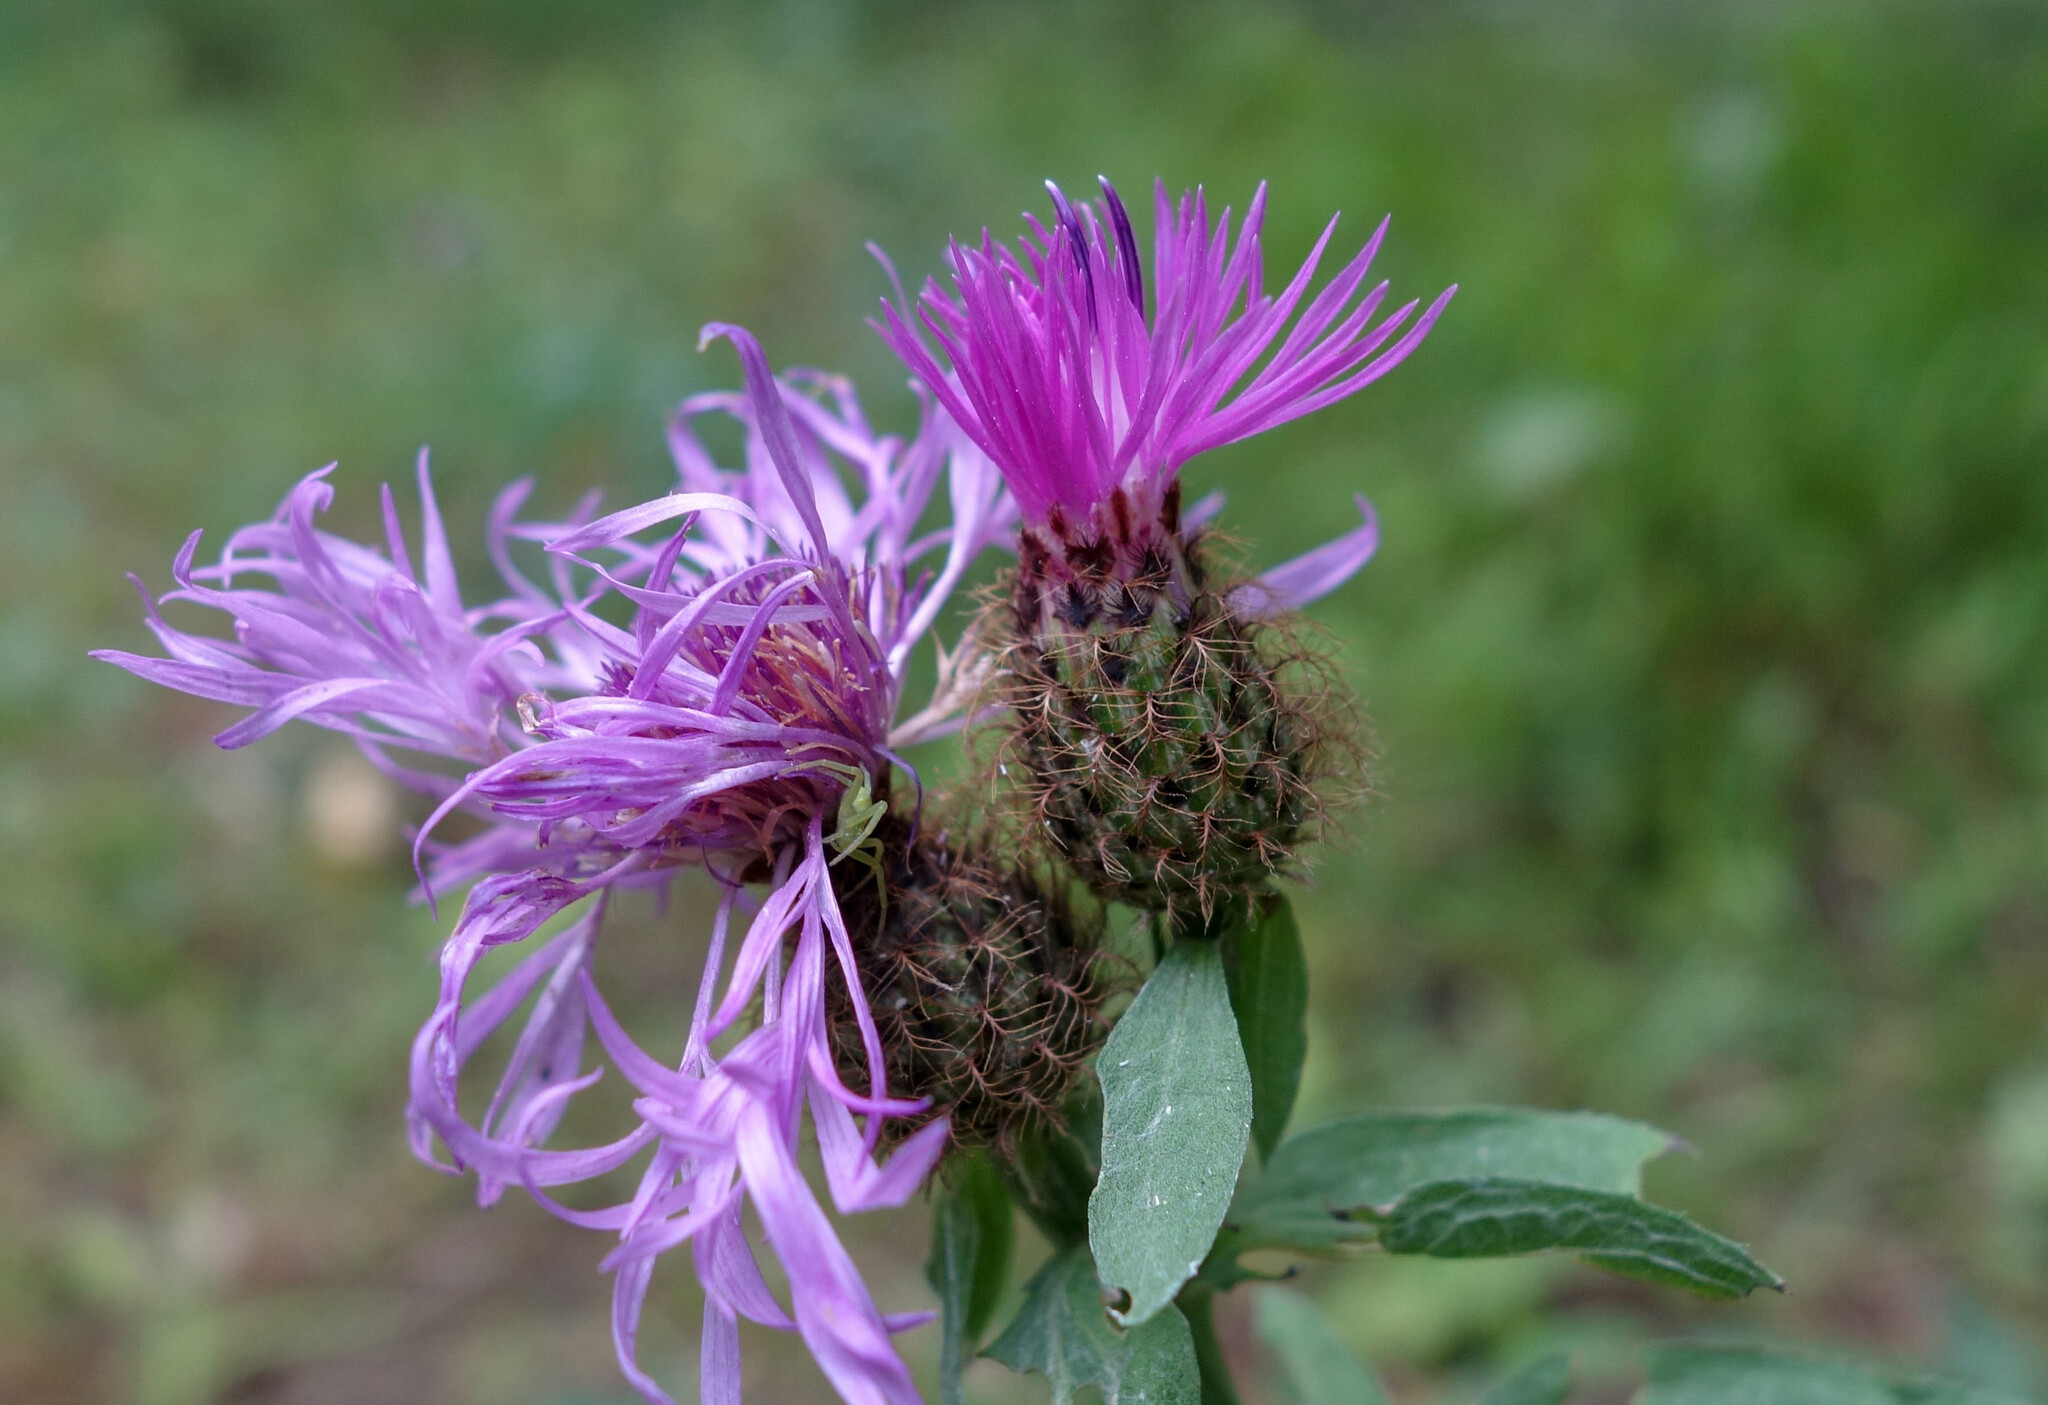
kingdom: Plantae
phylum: Tracheophyta
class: Magnoliopsida
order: Asterales
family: Asteraceae
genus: Centaurea
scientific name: Centaurea phrygia
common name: Wig knapweed
